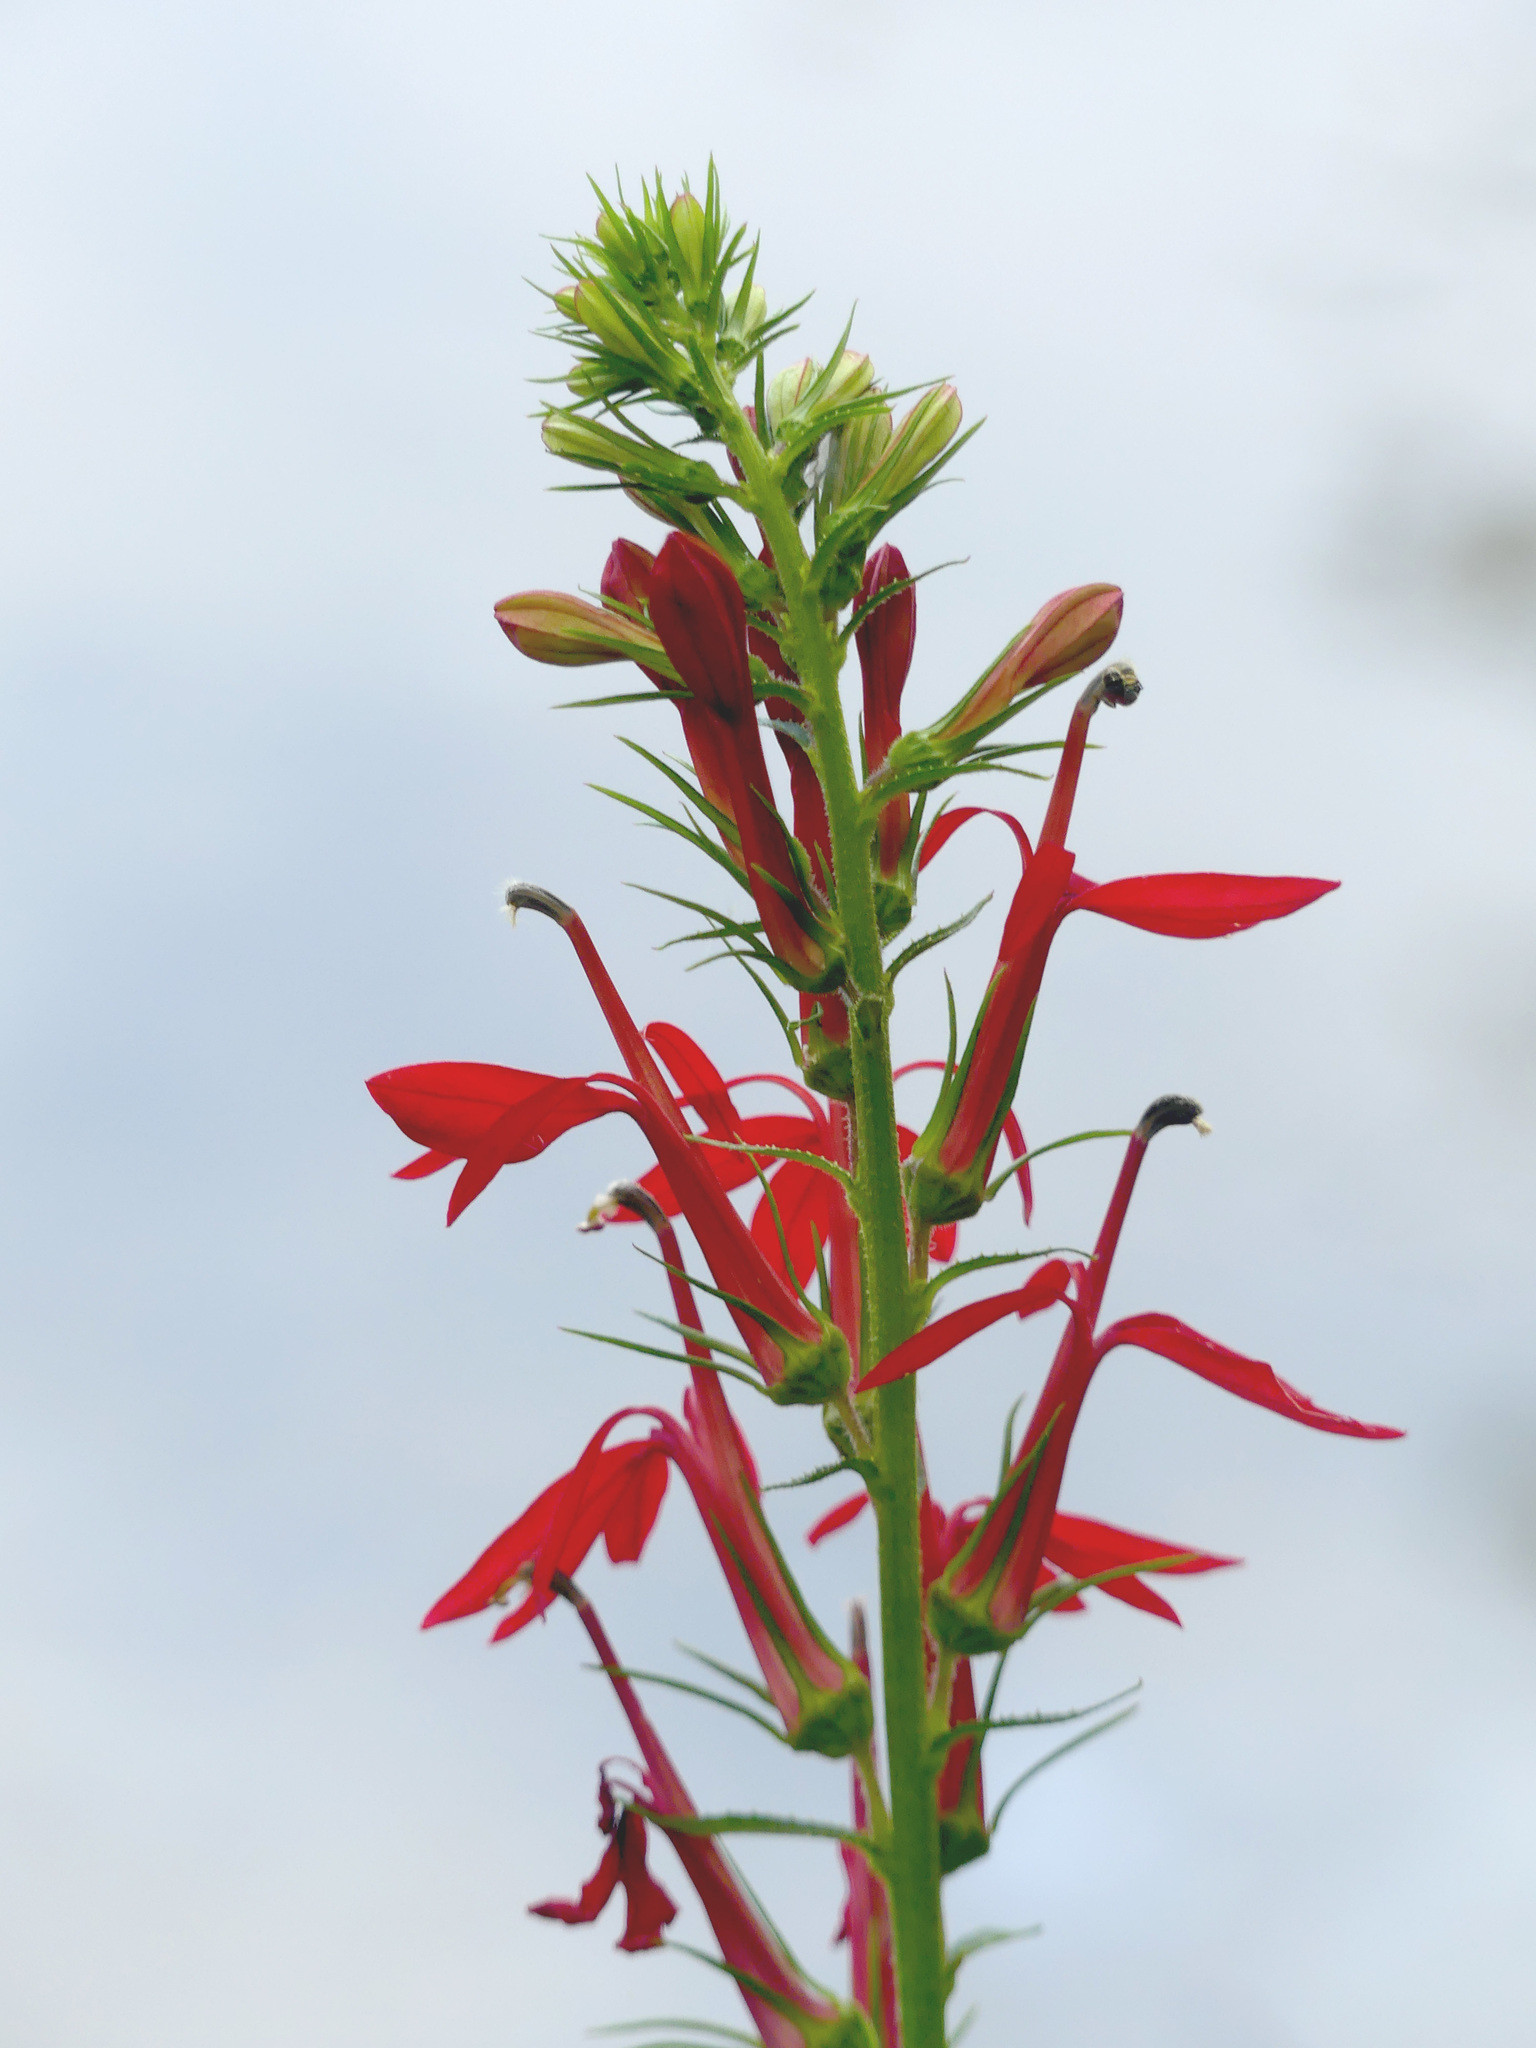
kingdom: Plantae
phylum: Tracheophyta
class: Magnoliopsida
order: Asterales
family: Campanulaceae
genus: Lobelia
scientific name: Lobelia cardinalis
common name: Cardinal flower
